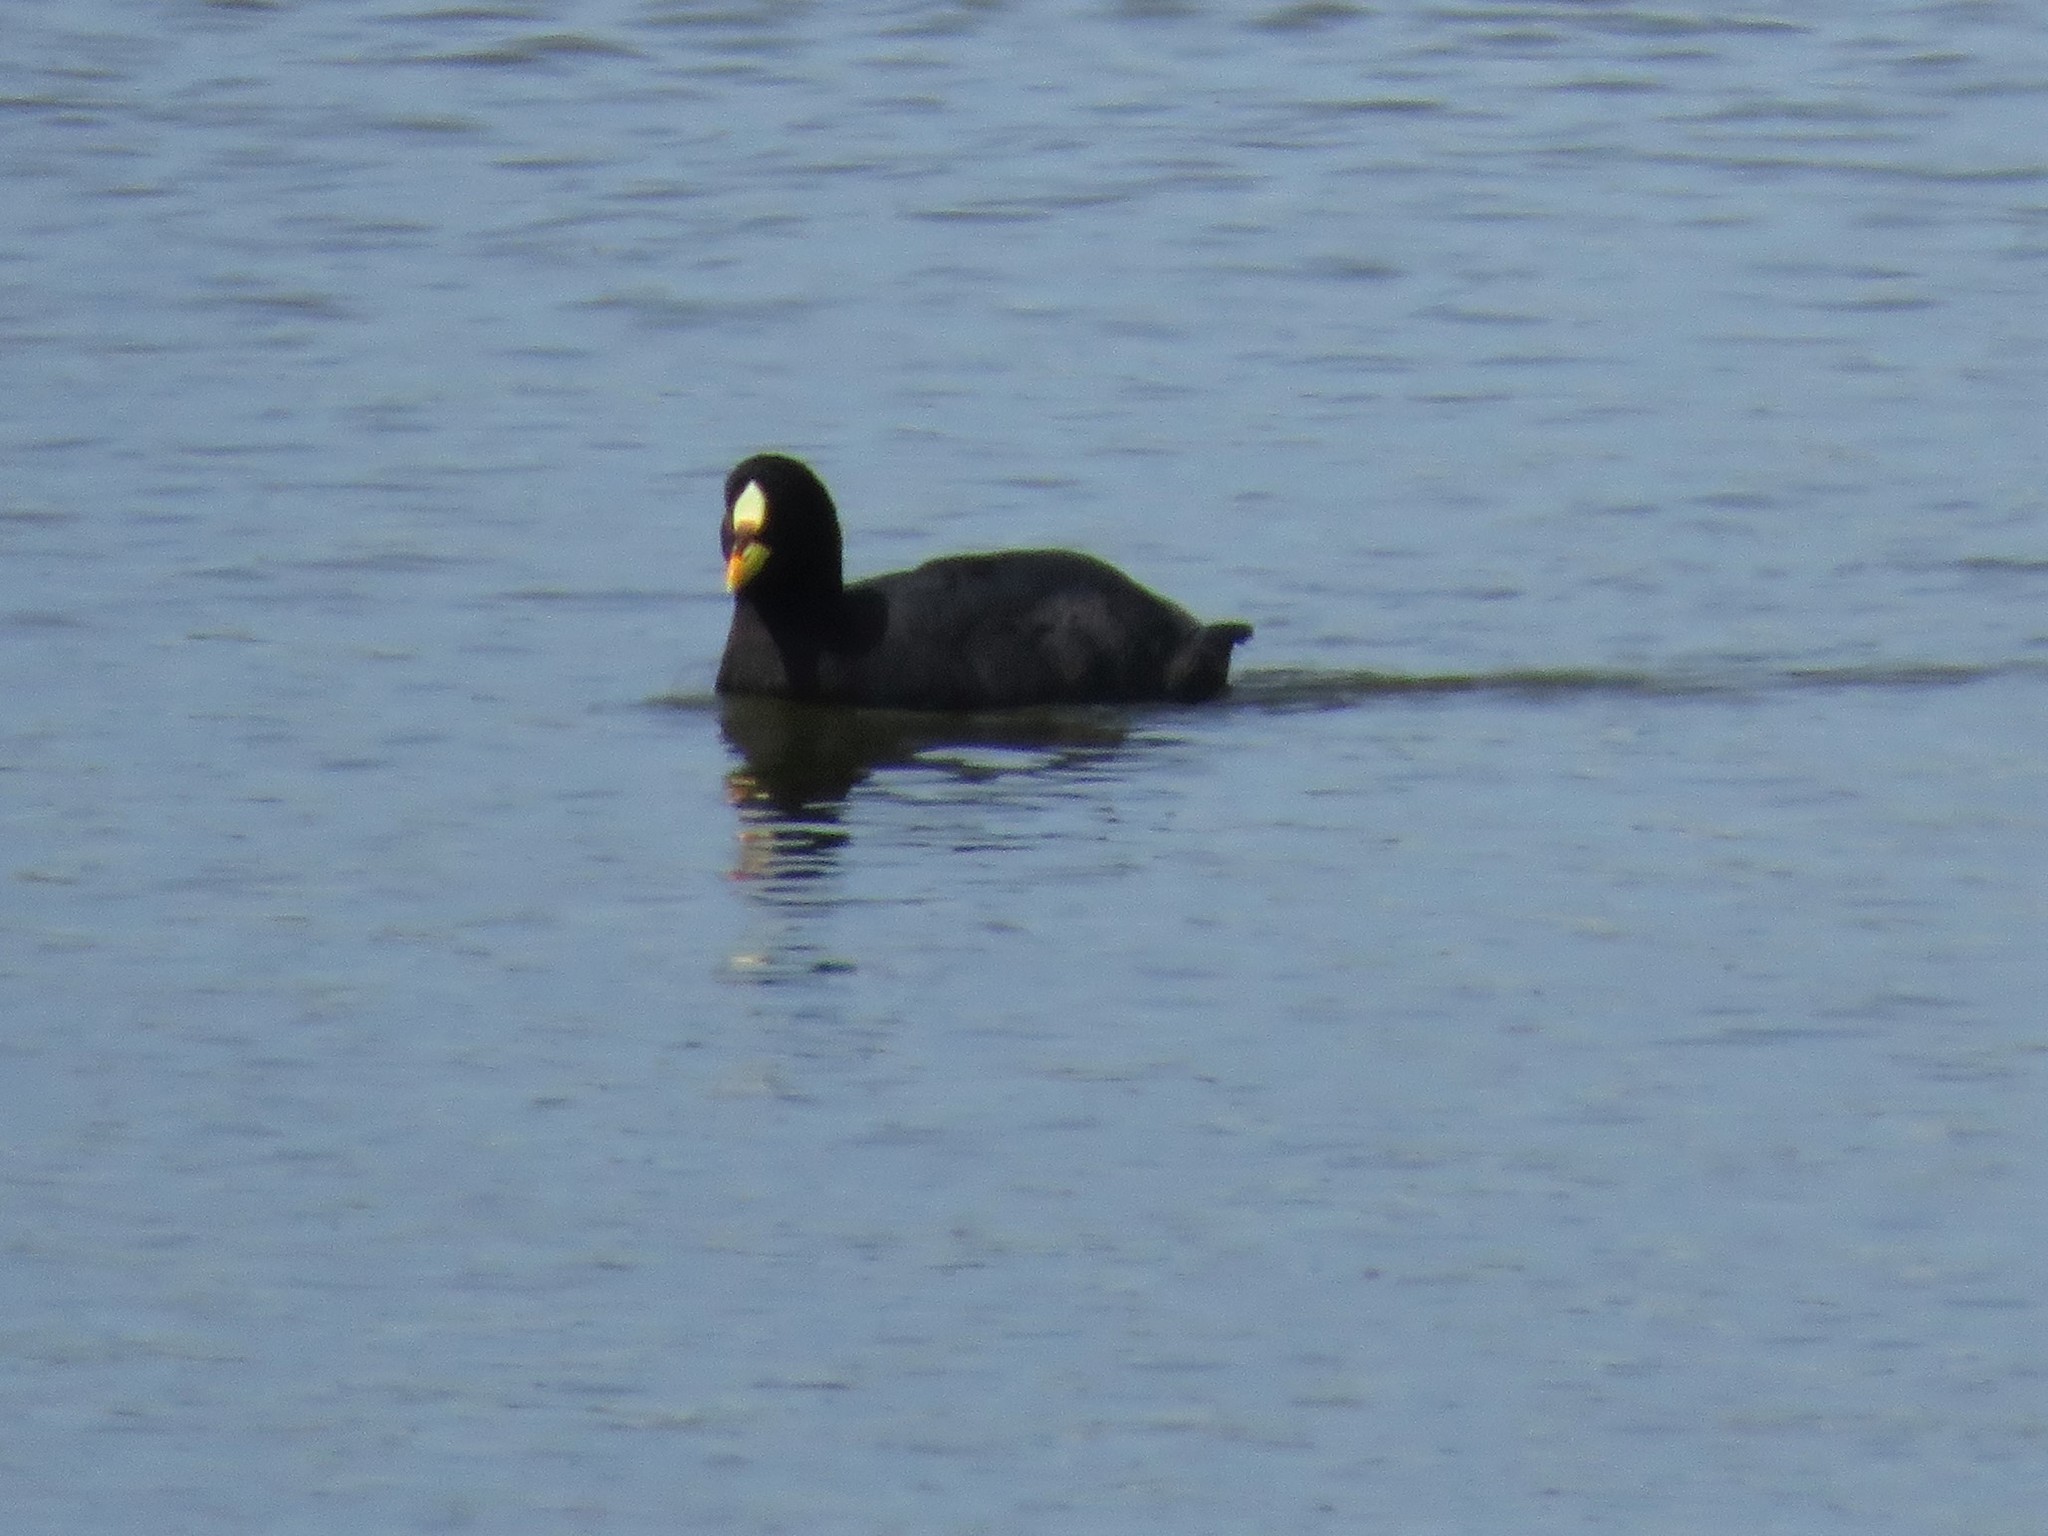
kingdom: Animalia
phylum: Chordata
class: Aves
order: Gruiformes
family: Rallidae
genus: Fulica
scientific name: Fulica armillata
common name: Red-gartered coot
